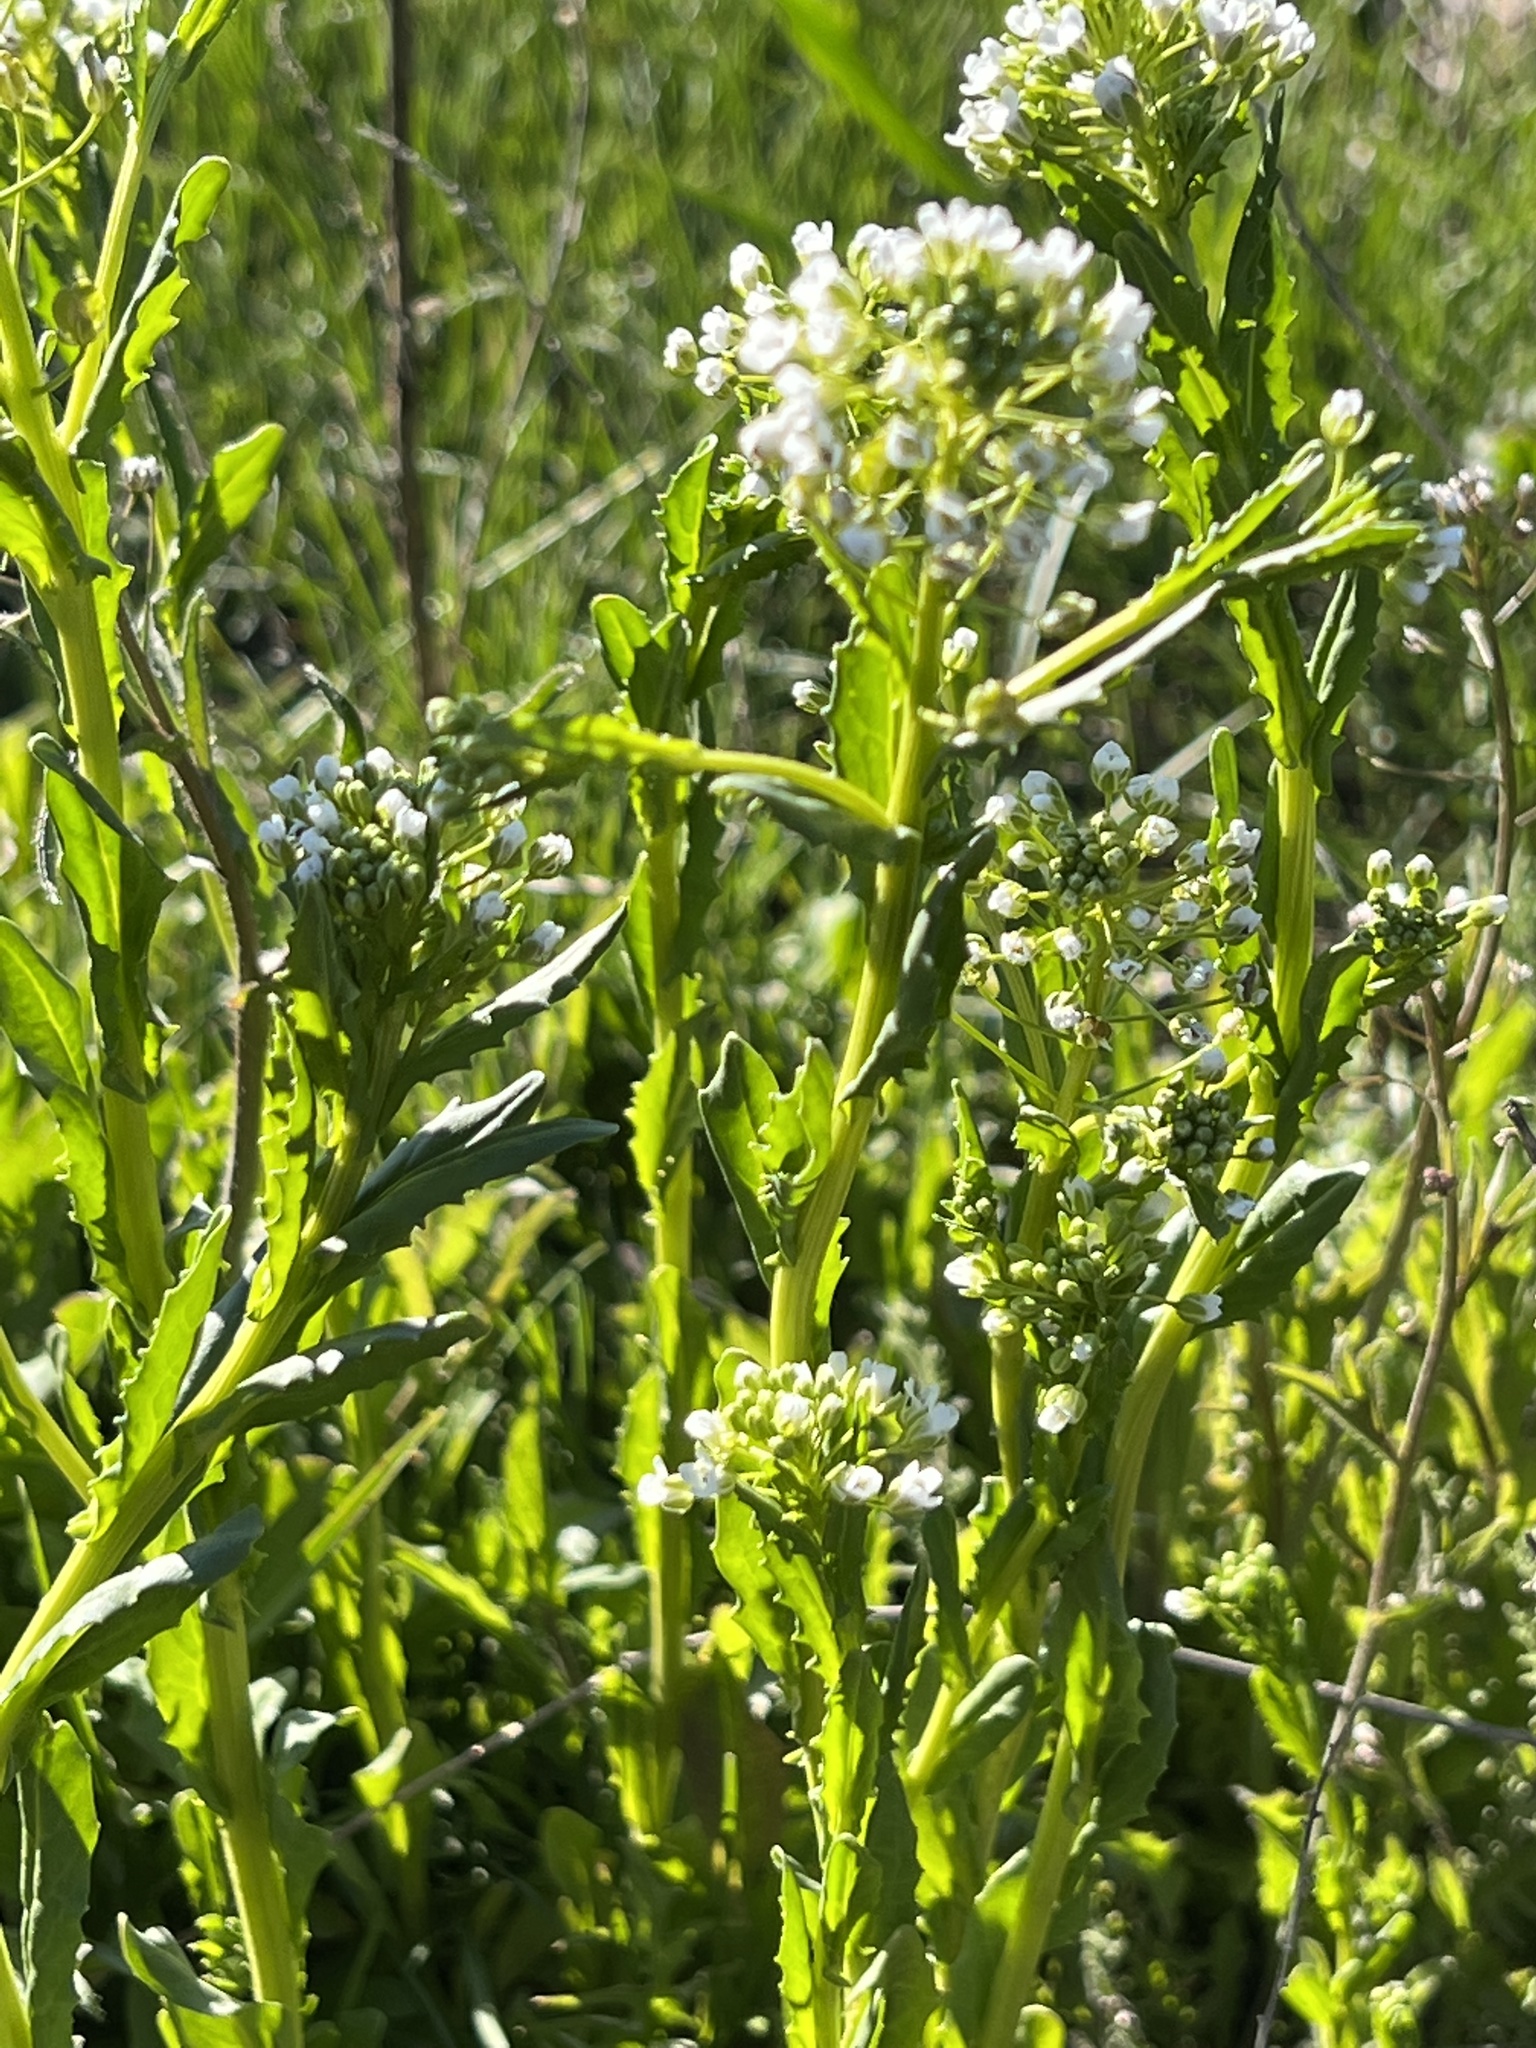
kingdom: Plantae
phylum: Tracheophyta
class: Magnoliopsida
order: Brassicales
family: Brassicaceae
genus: Thlaspi
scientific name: Thlaspi arvense
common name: Field pennycress
